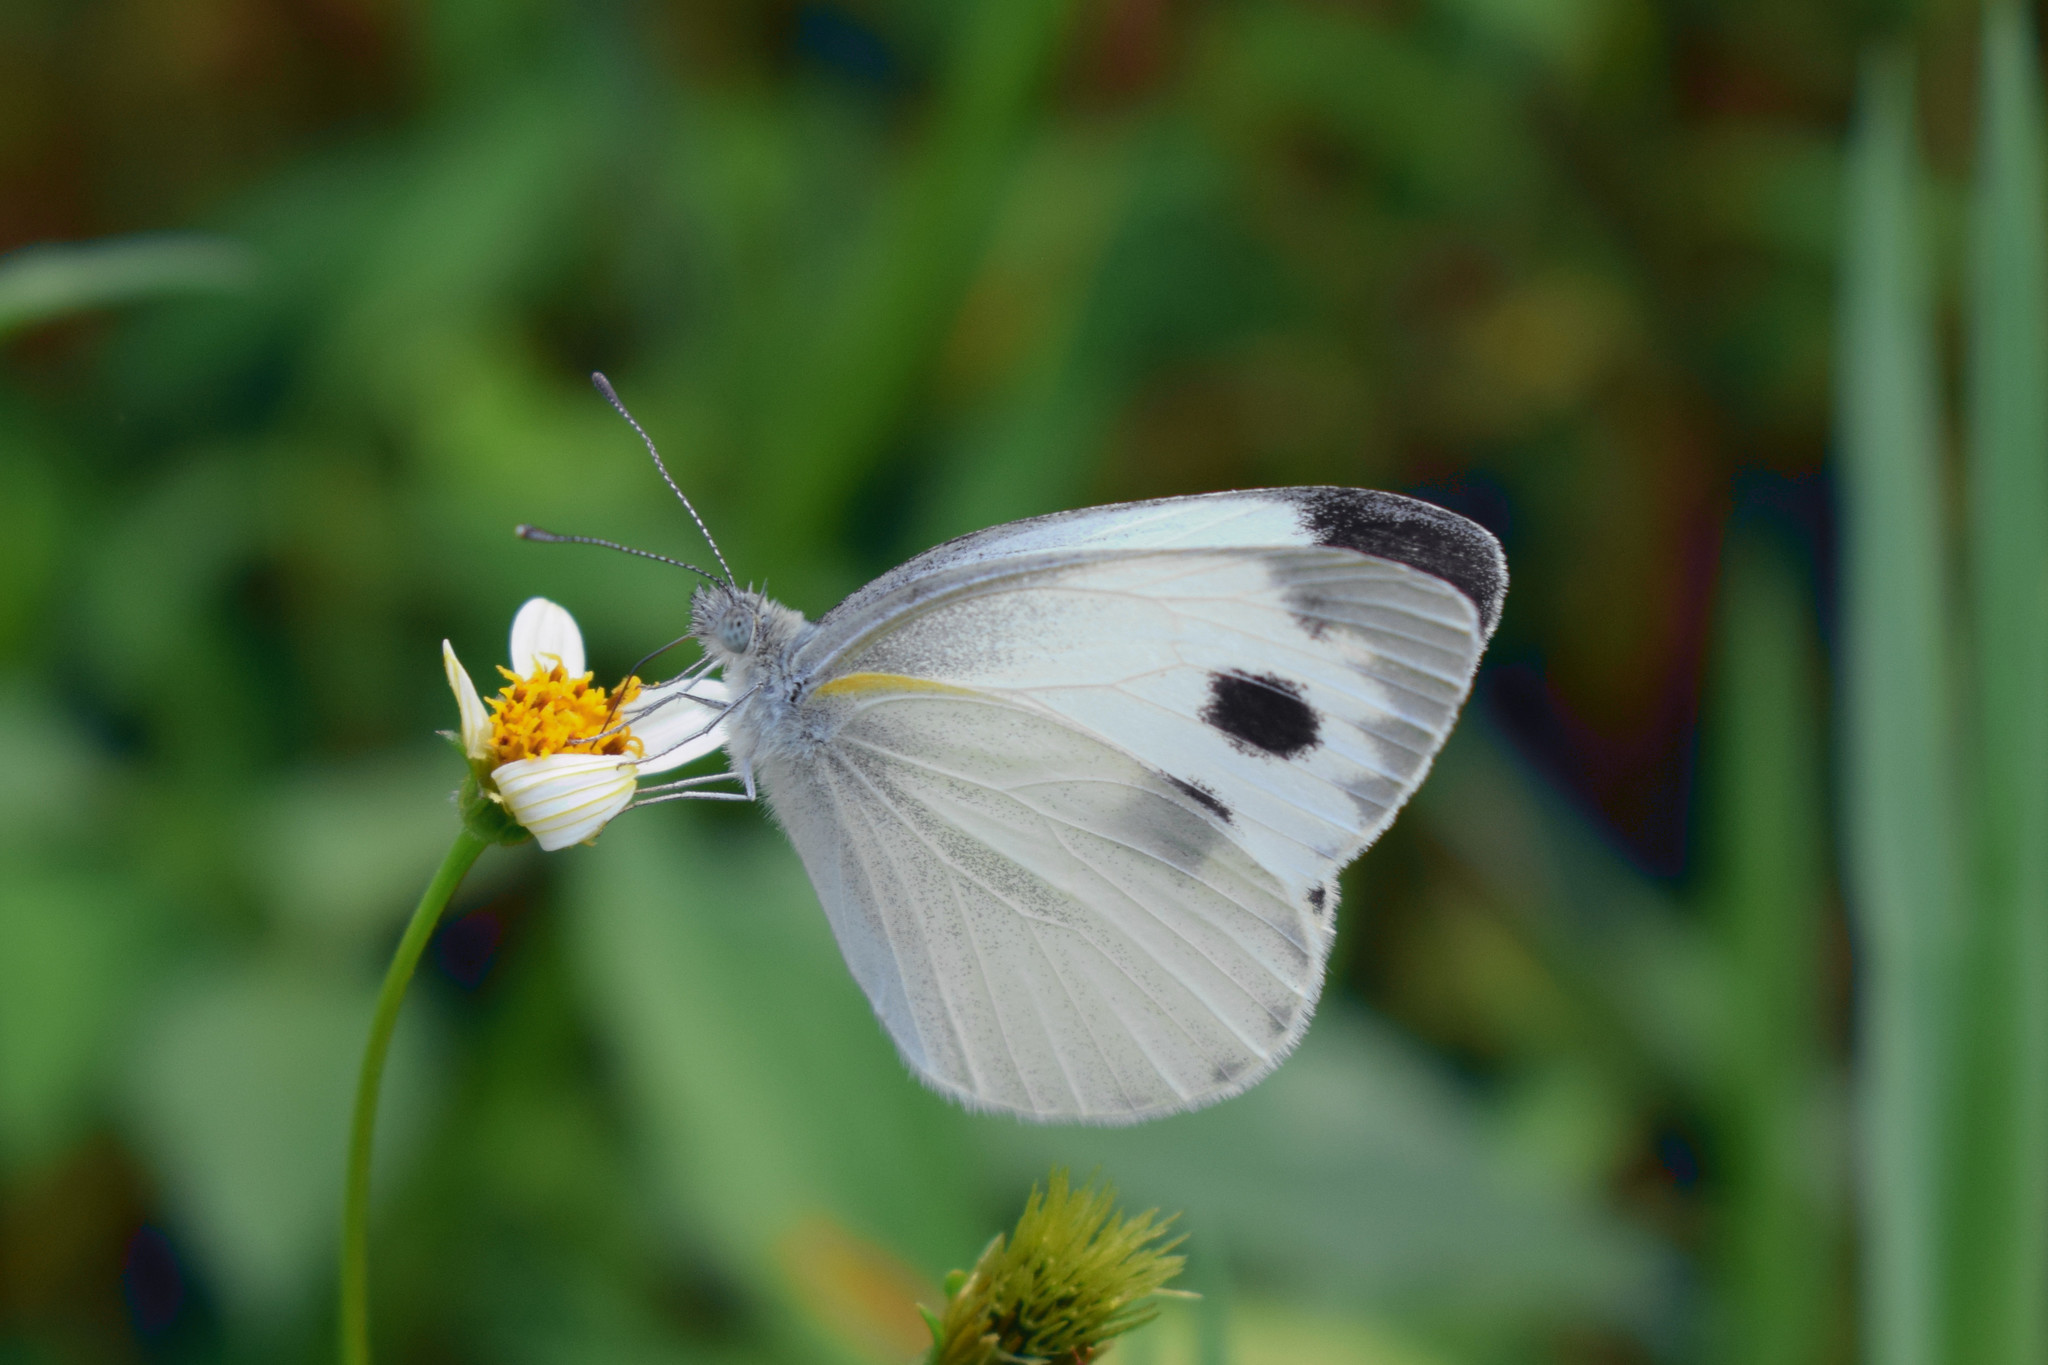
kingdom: Animalia
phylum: Arthropoda
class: Insecta
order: Lepidoptera
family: Pieridae
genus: Pieris
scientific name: Pieris canidia
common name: Indian cabbage white
